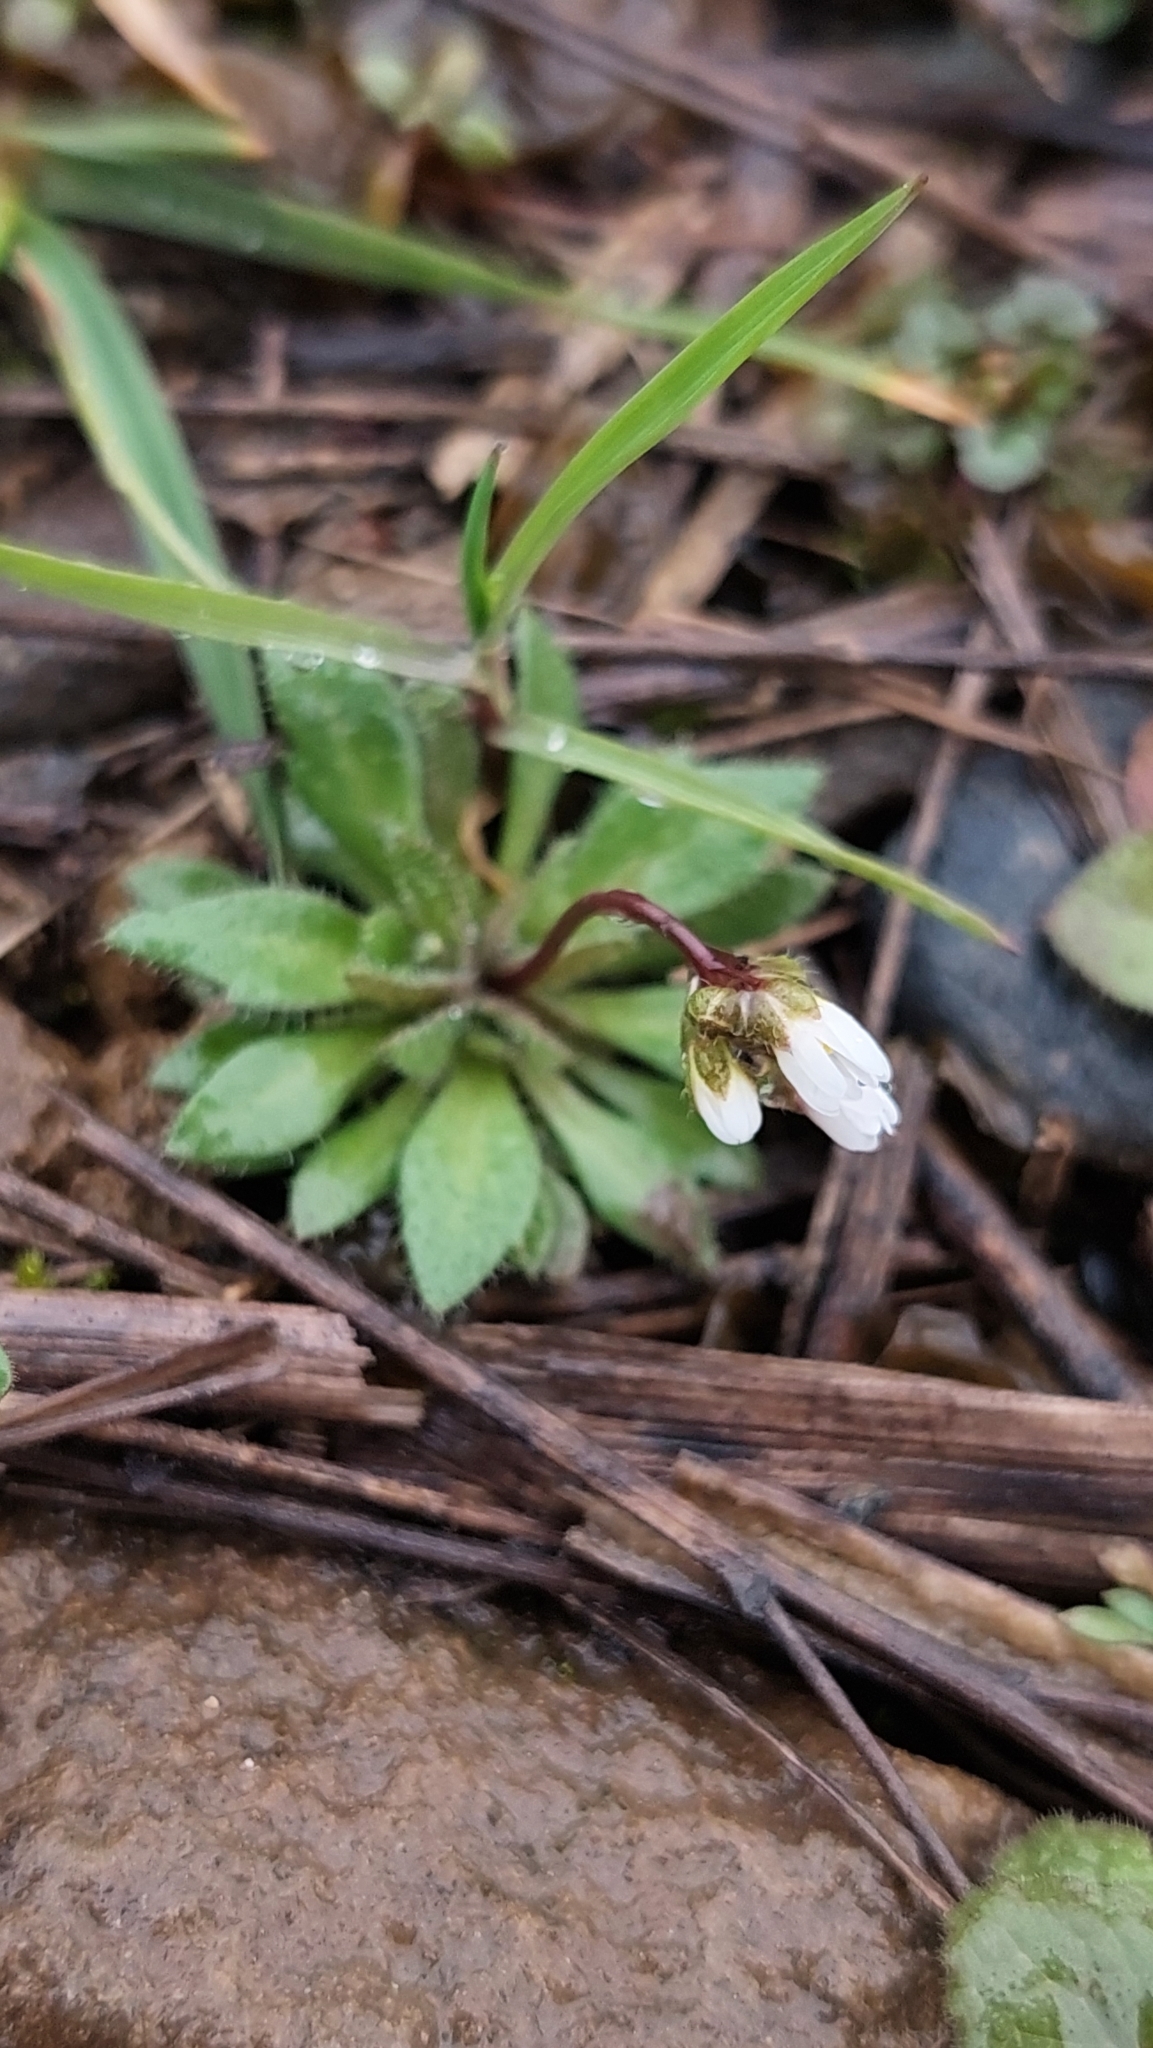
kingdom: Plantae
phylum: Tracheophyta
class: Magnoliopsida
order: Brassicales
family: Brassicaceae
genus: Draba
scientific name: Draba verna
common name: Spring draba
